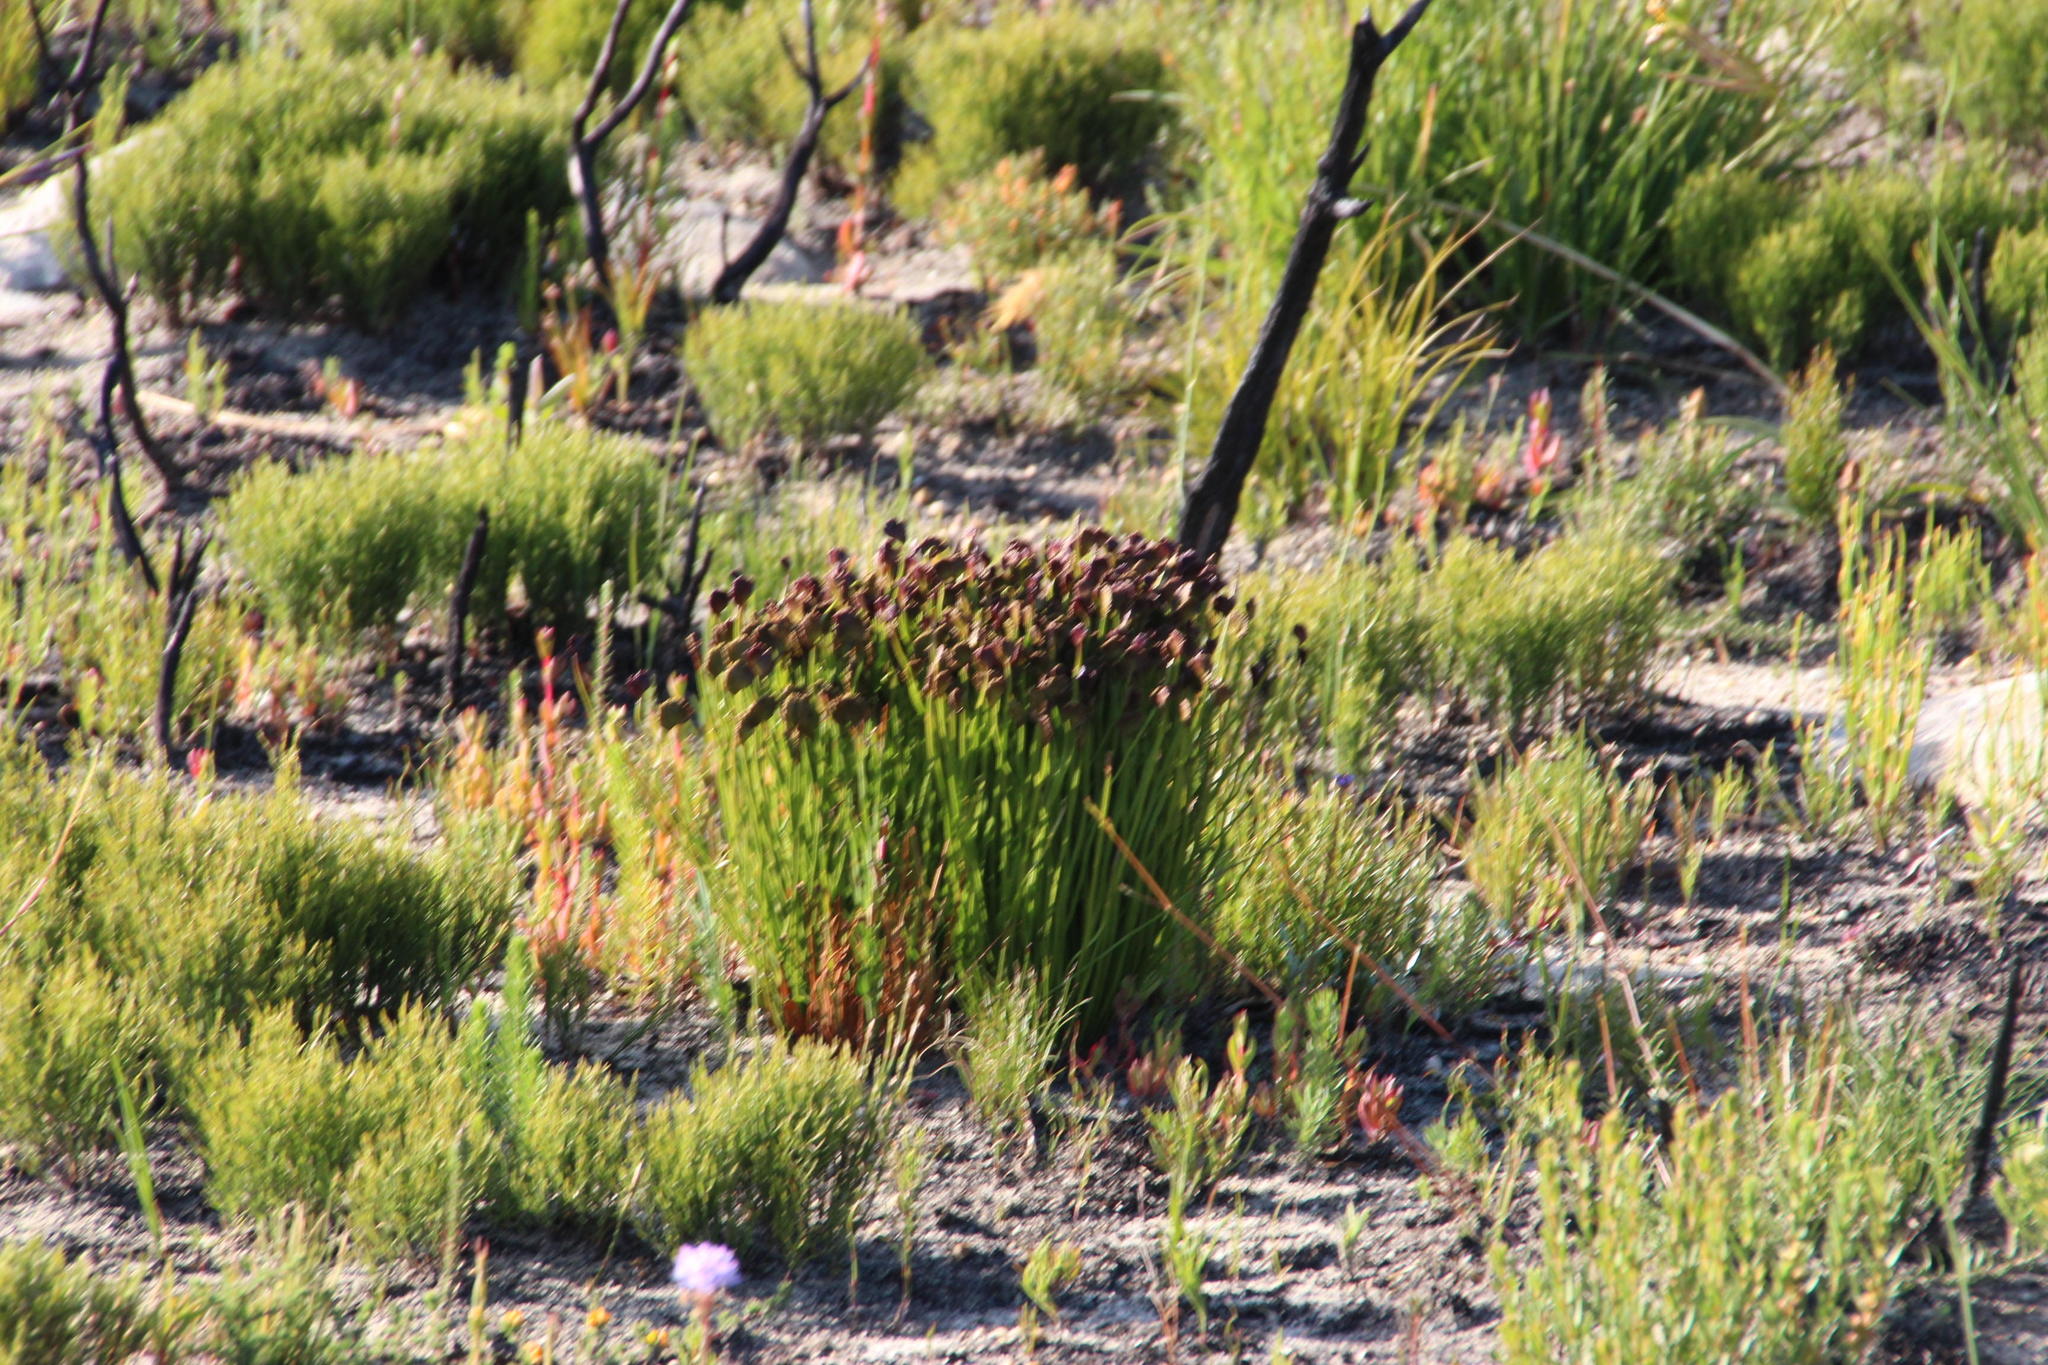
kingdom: Plantae
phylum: Tracheophyta
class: Polypodiopsida
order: Schizaeales
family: Schizaeaceae
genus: Schizaea
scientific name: Schizaea pectinata
